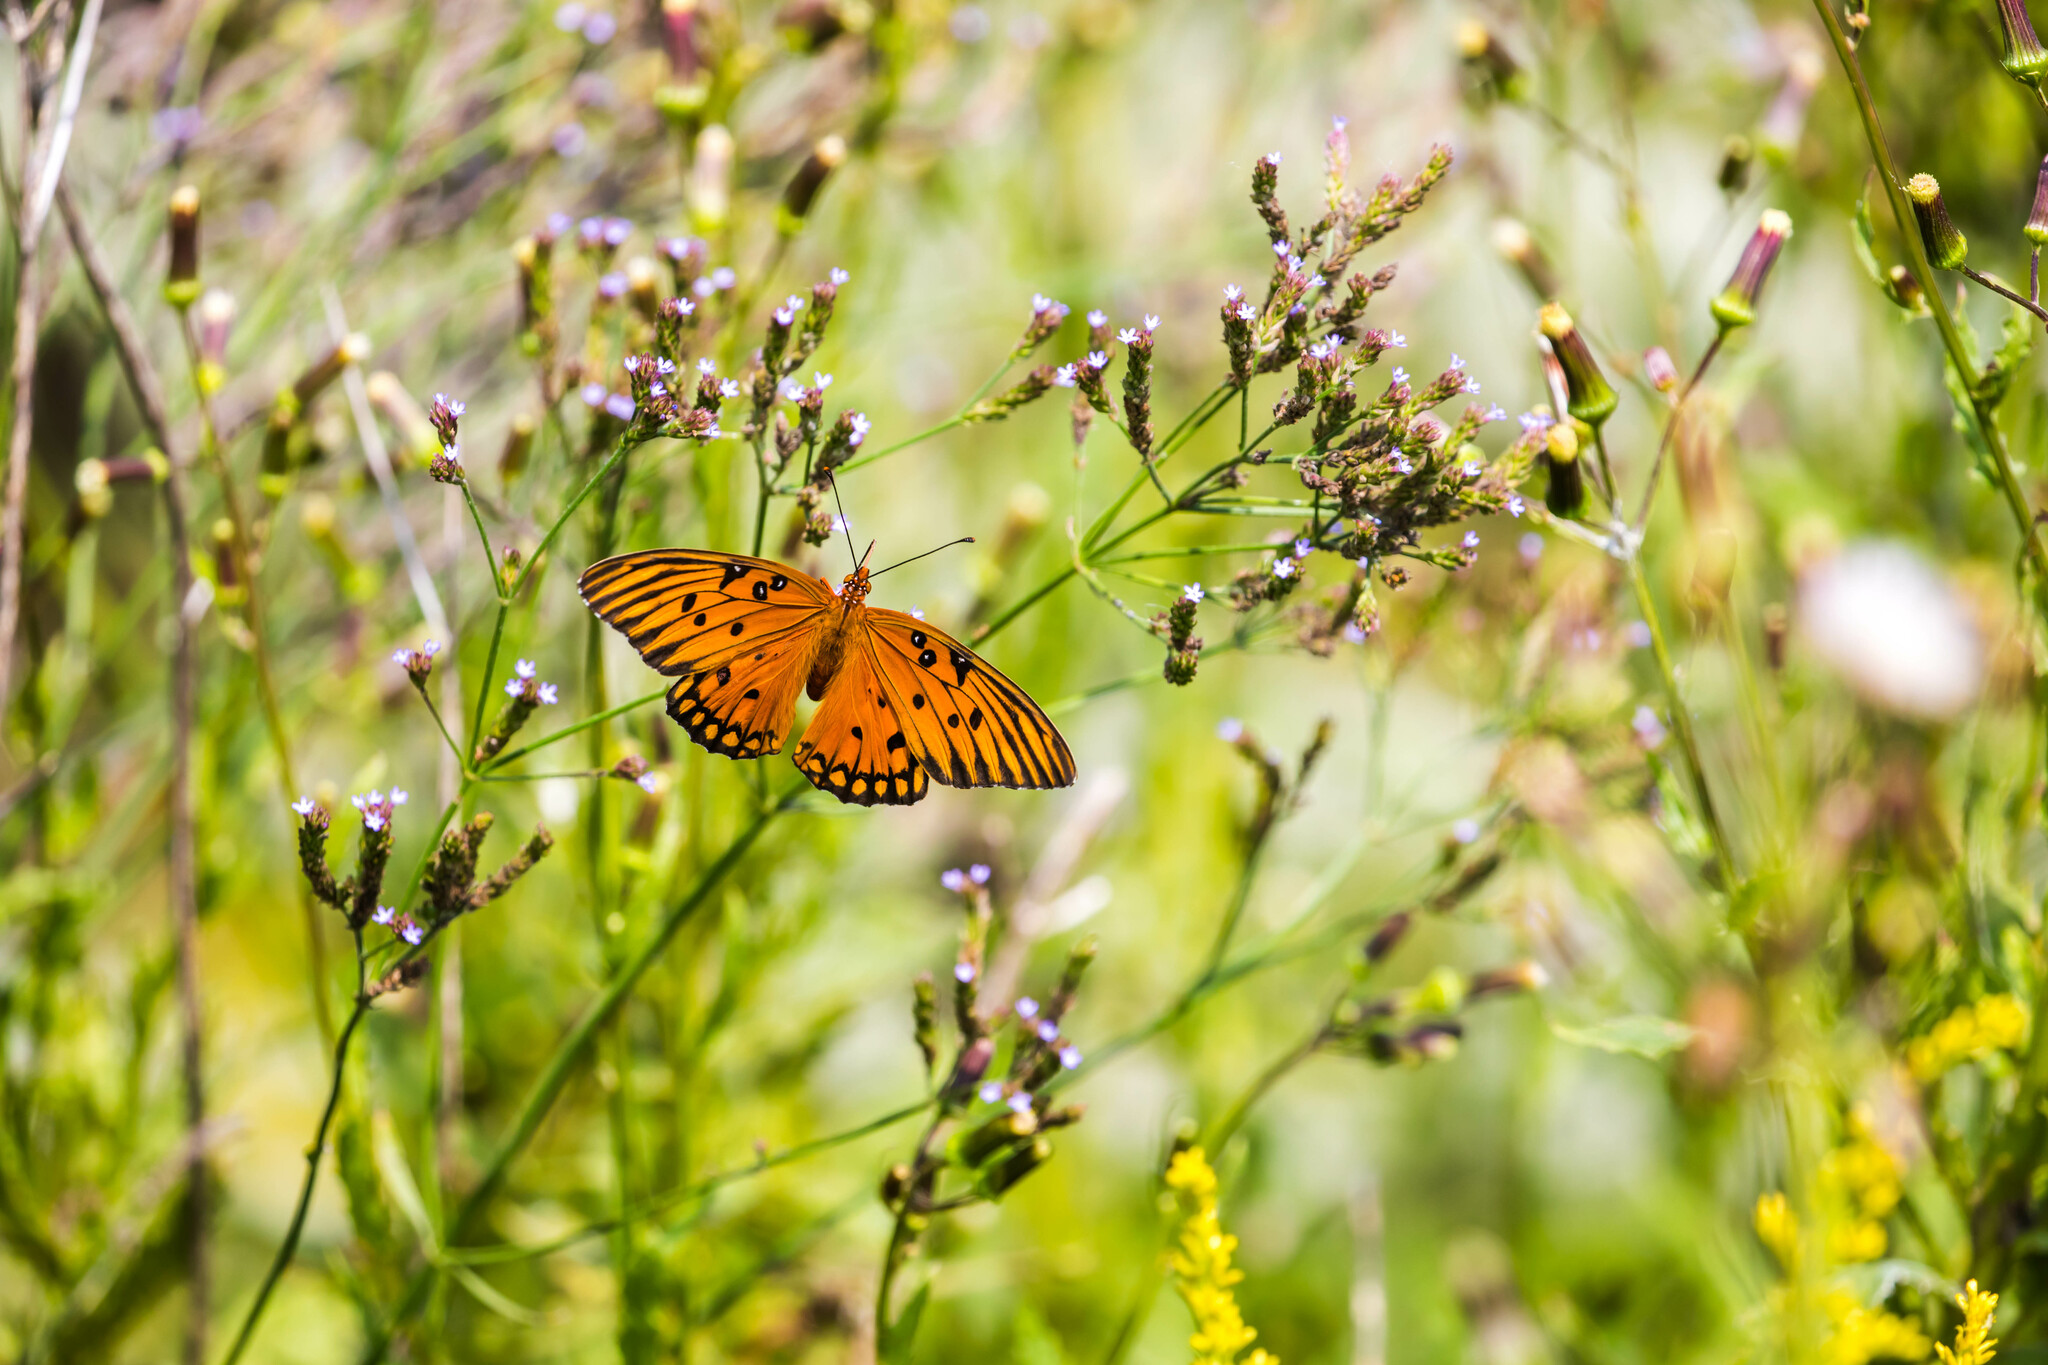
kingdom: Animalia
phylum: Arthropoda
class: Insecta
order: Lepidoptera
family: Nymphalidae
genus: Dione
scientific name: Dione vanillae
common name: Gulf fritillary
